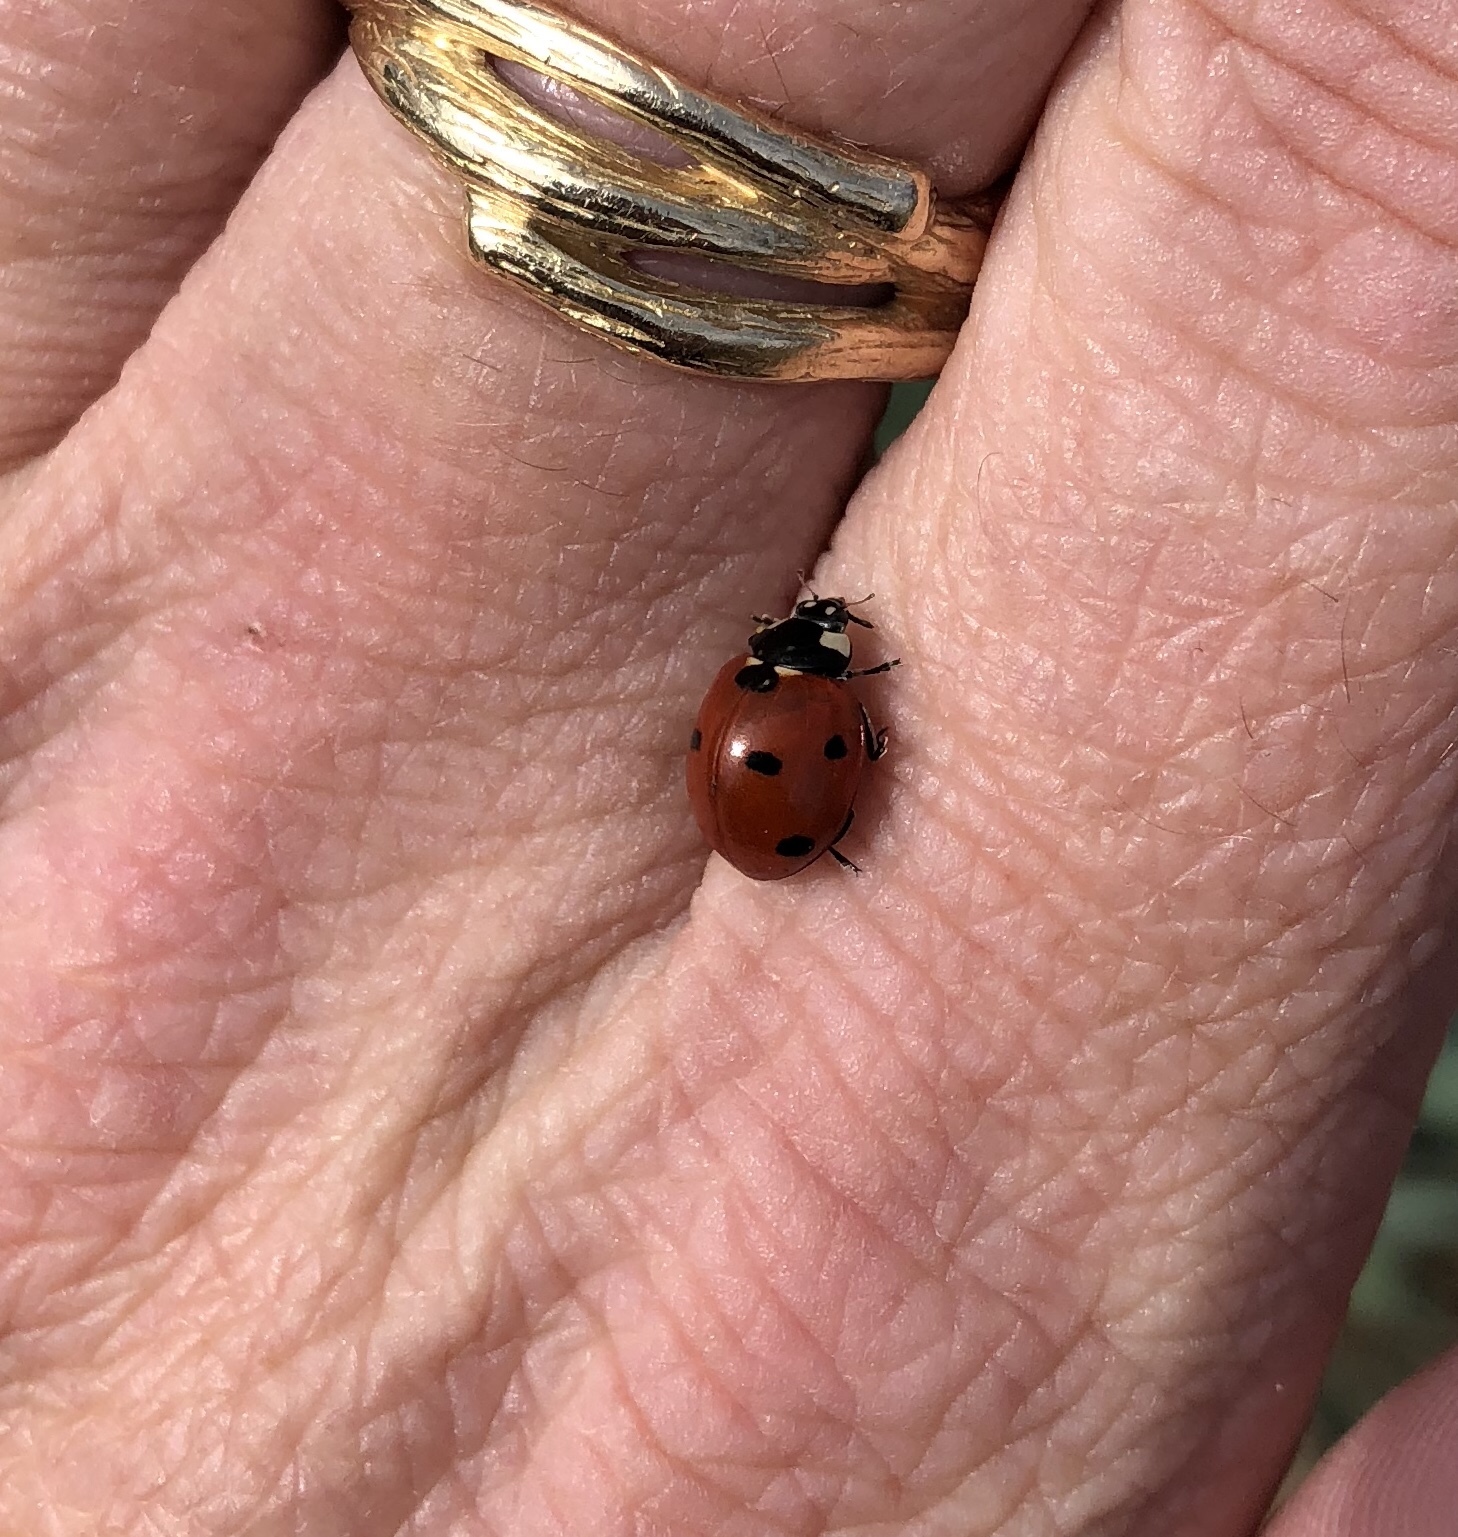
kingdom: Animalia
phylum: Arthropoda
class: Insecta
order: Coleoptera
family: Coccinellidae
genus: Coccinella
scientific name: Coccinella septempunctata
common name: Sevenspotted lady beetle
